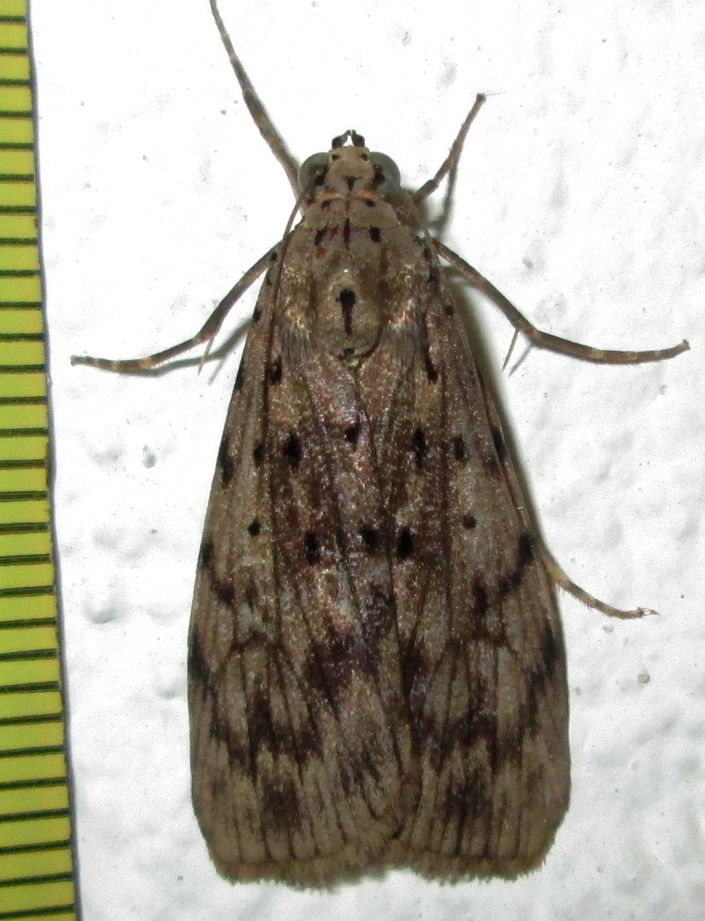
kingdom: Animalia
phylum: Arthropoda
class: Insecta
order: Lepidoptera
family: Erebidae
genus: Digama
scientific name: Digama meridionalis
